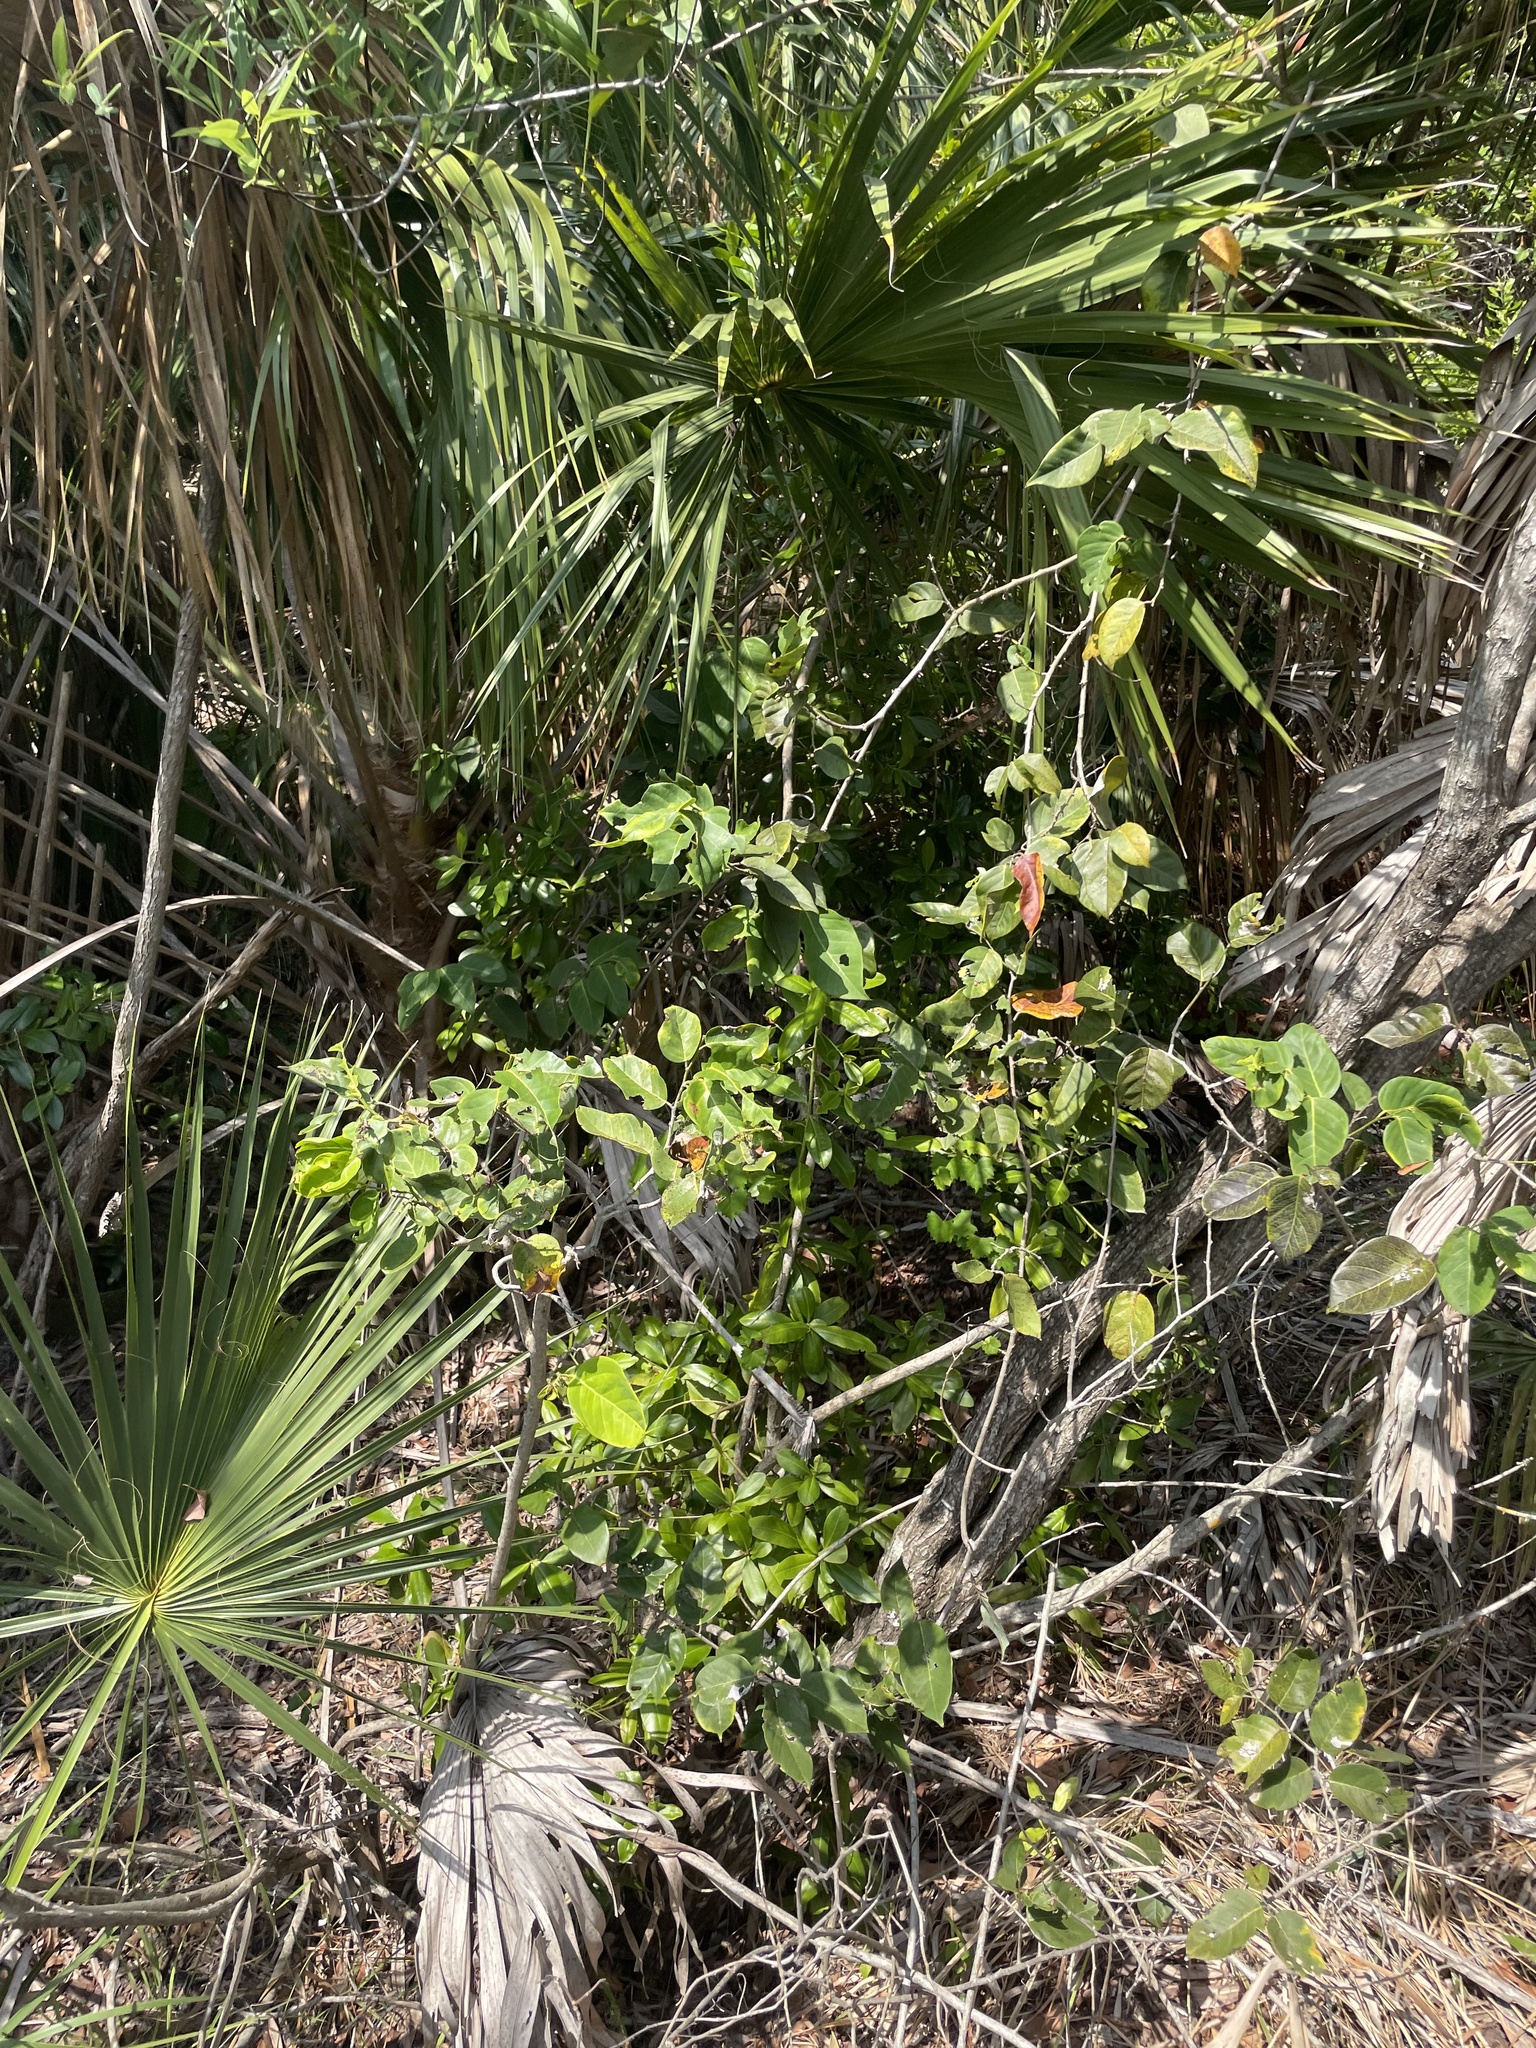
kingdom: Plantae
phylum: Tracheophyta
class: Magnoliopsida
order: Fabales
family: Fabaceae
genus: Dalbergia
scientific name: Dalbergia ecastaphyllum
